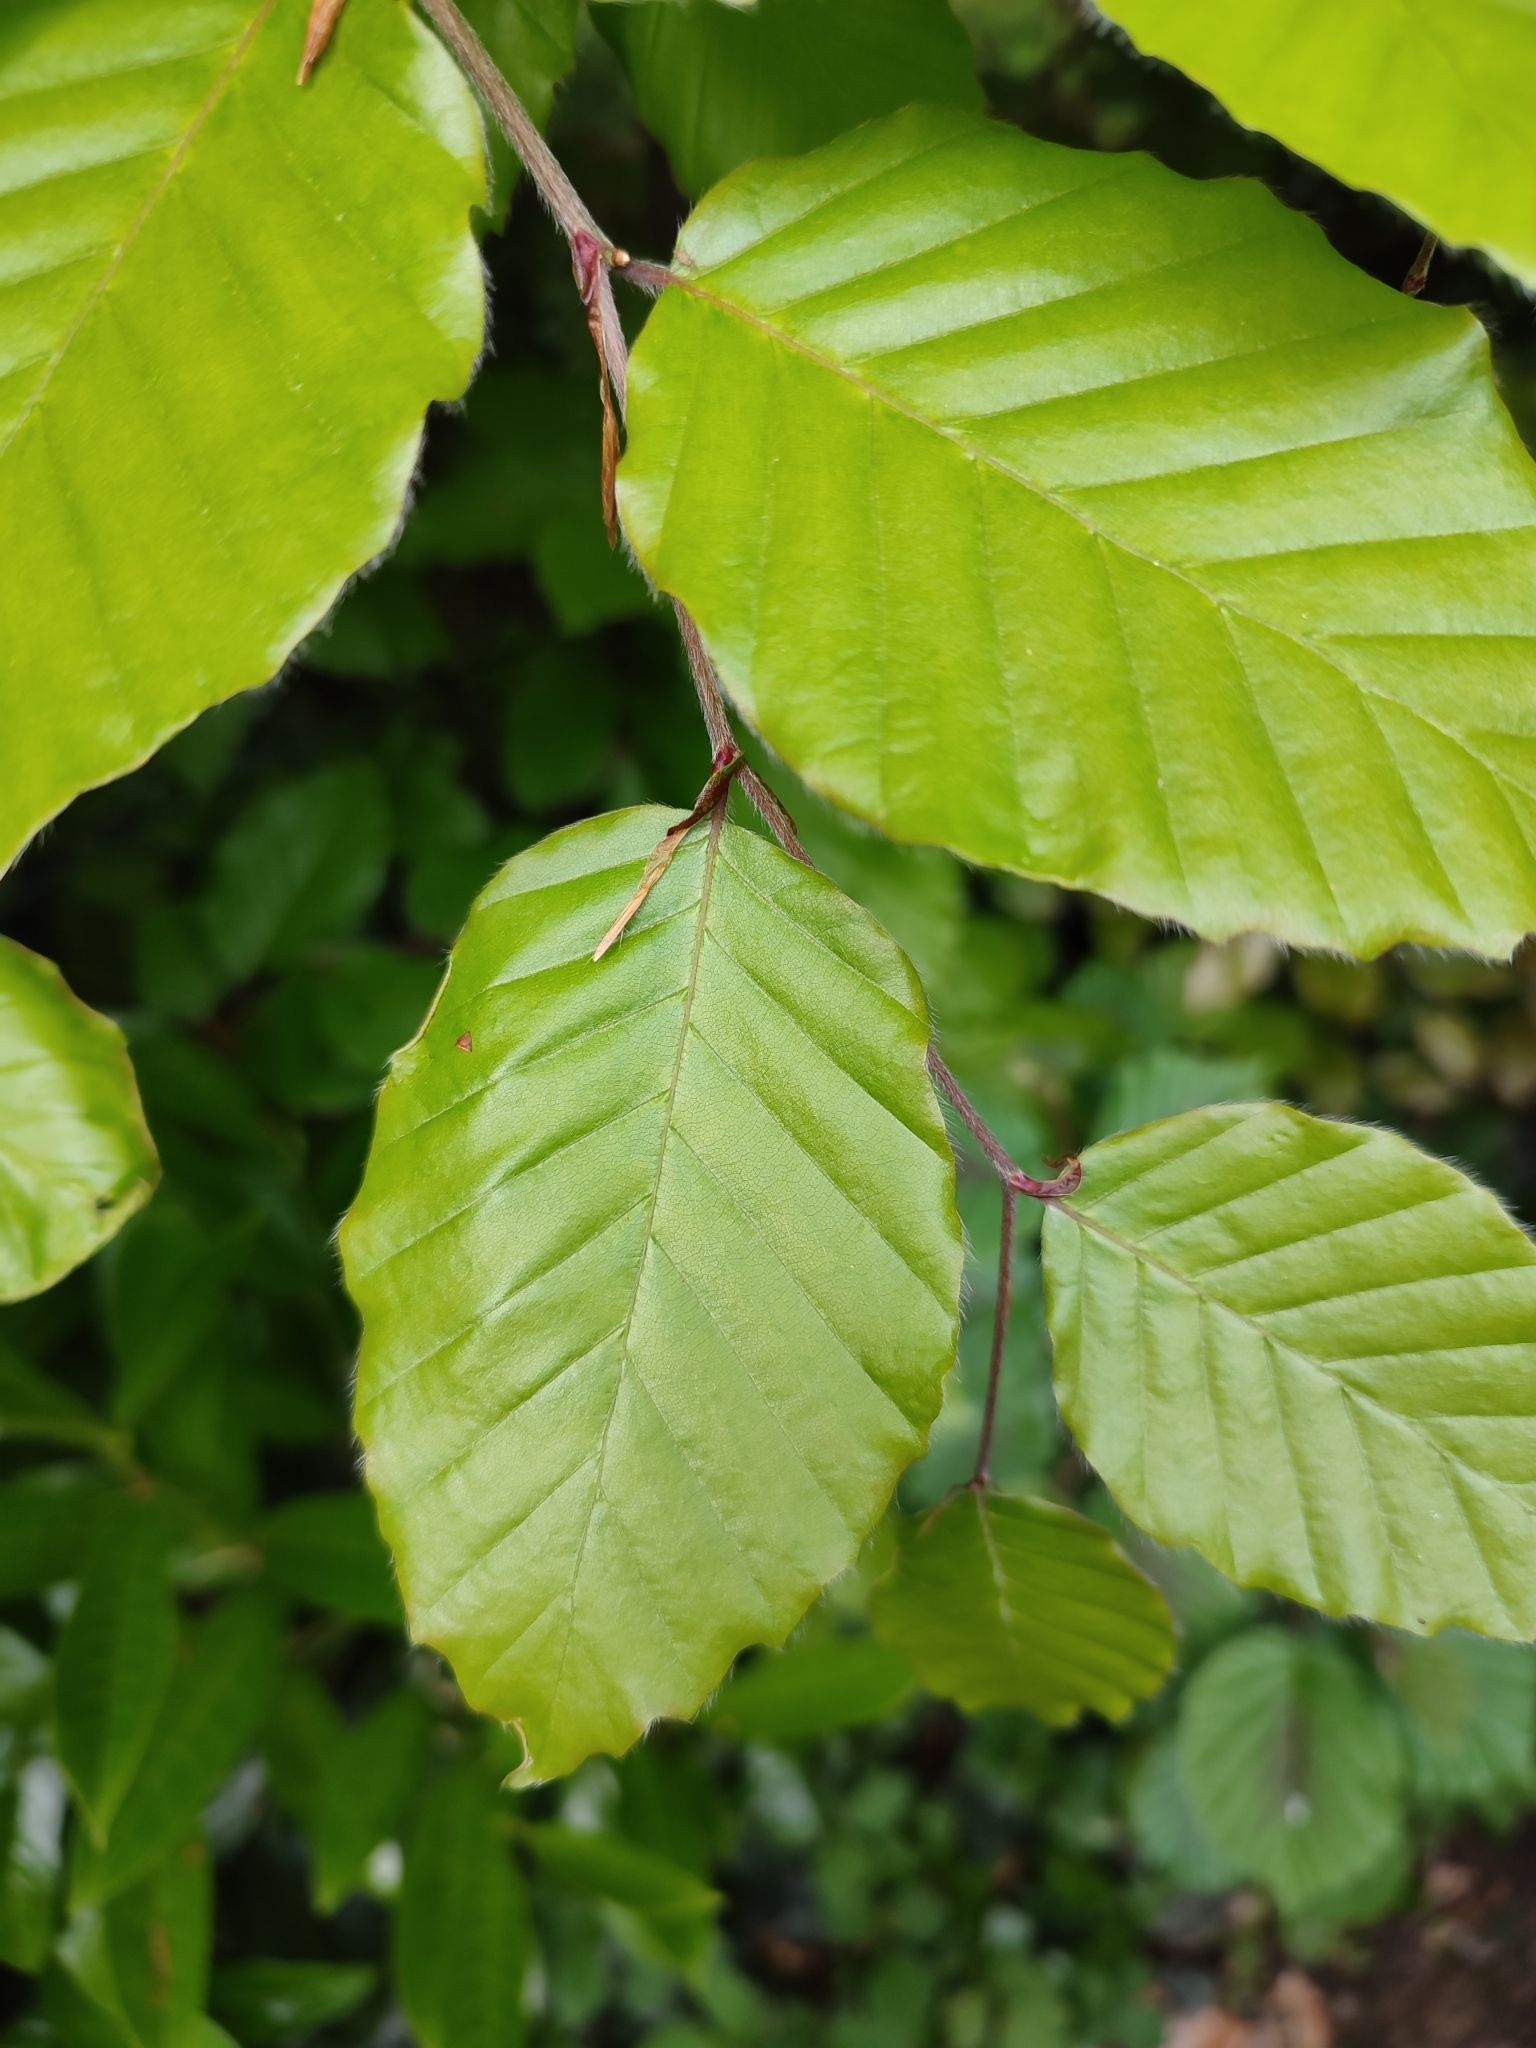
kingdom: Plantae
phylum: Tracheophyta
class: Magnoliopsida
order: Fagales
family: Fagaceae
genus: Fagus
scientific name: Fagus sylvatica
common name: Beech
